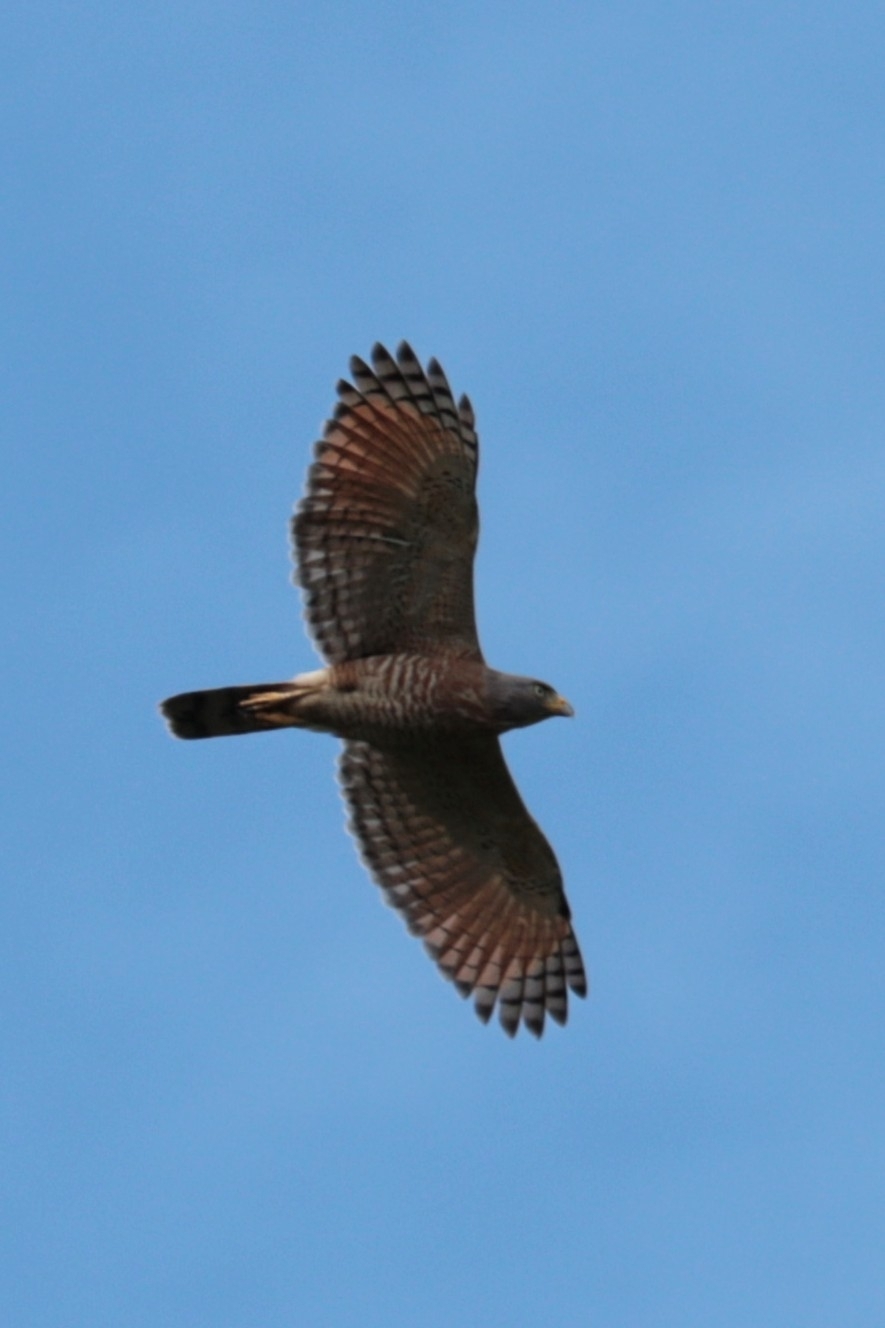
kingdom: Animalia
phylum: Chordata
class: Aves
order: Accipitriformes
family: Accipitridae
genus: Rupornis
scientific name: Rupornis magnirostris
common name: Roadside hawk
